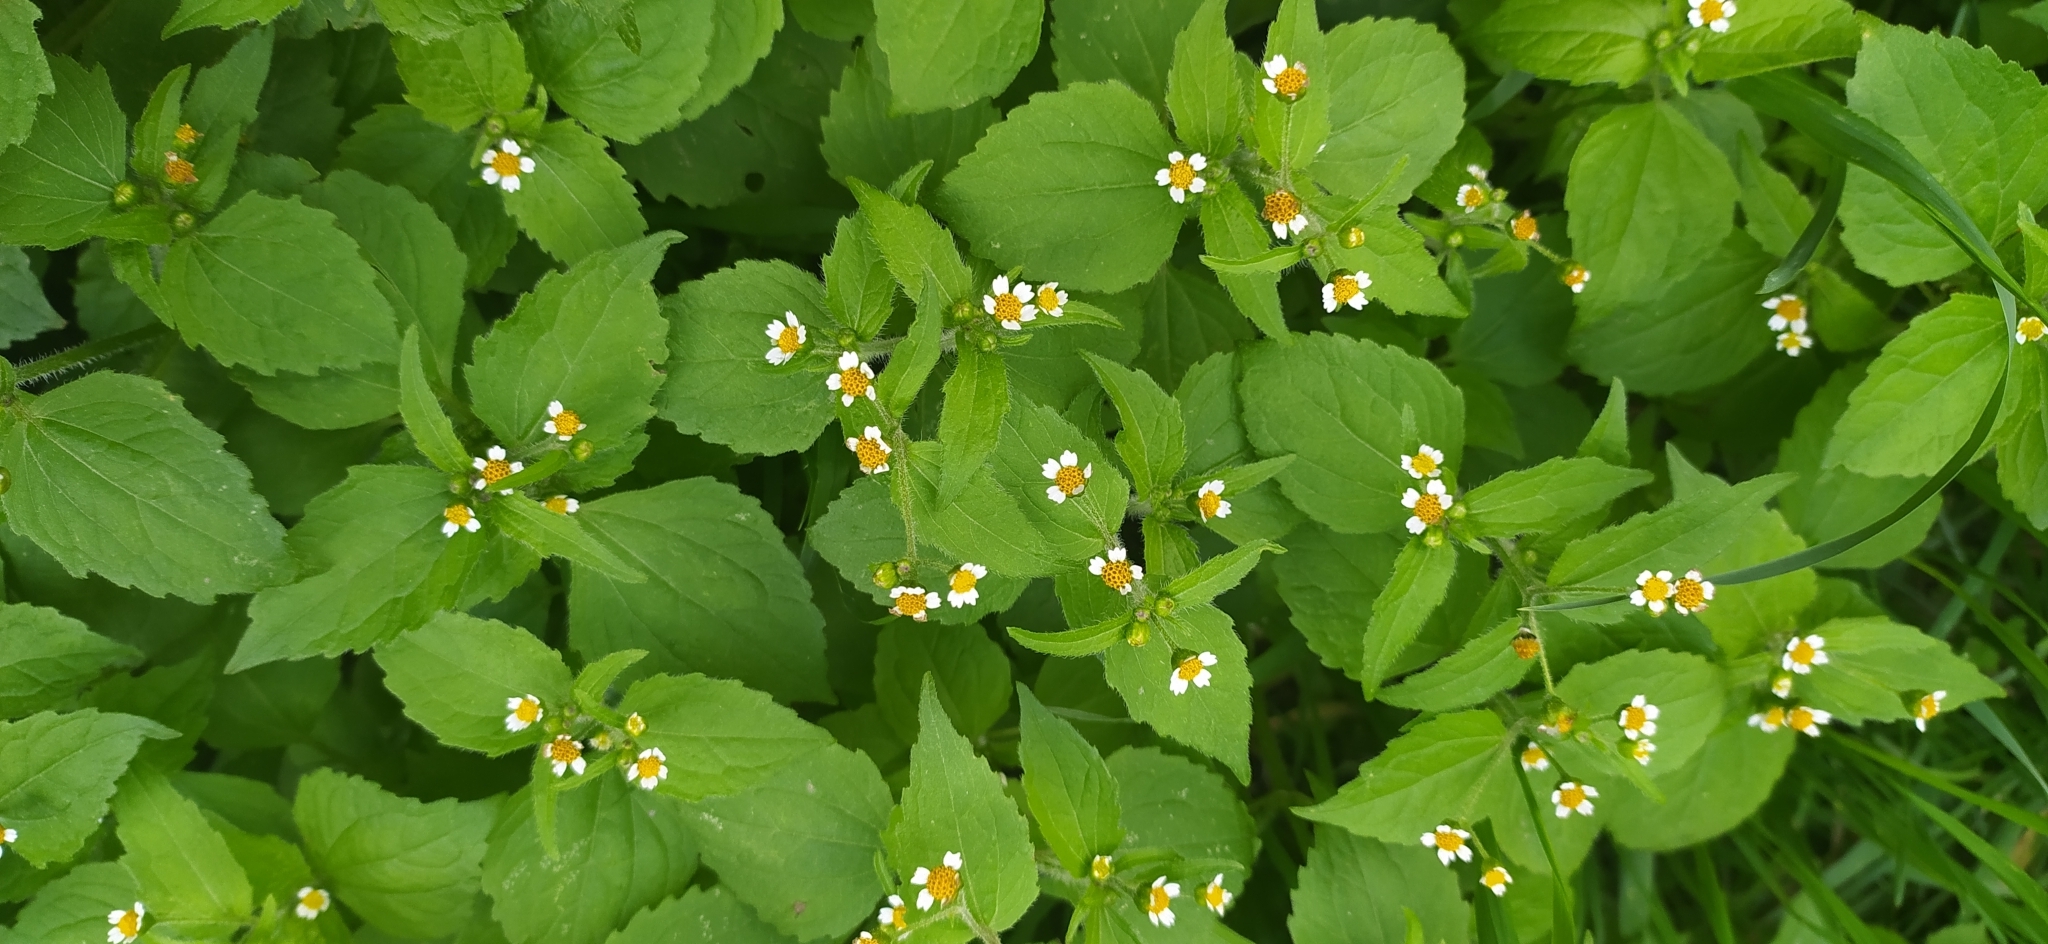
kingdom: Plantae
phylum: Tracheophyta
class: Magnoliopsida
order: Asterales
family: Asteraceae
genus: Galinsoga
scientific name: Galinsoga quadriradiata
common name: Shaggy soldier
